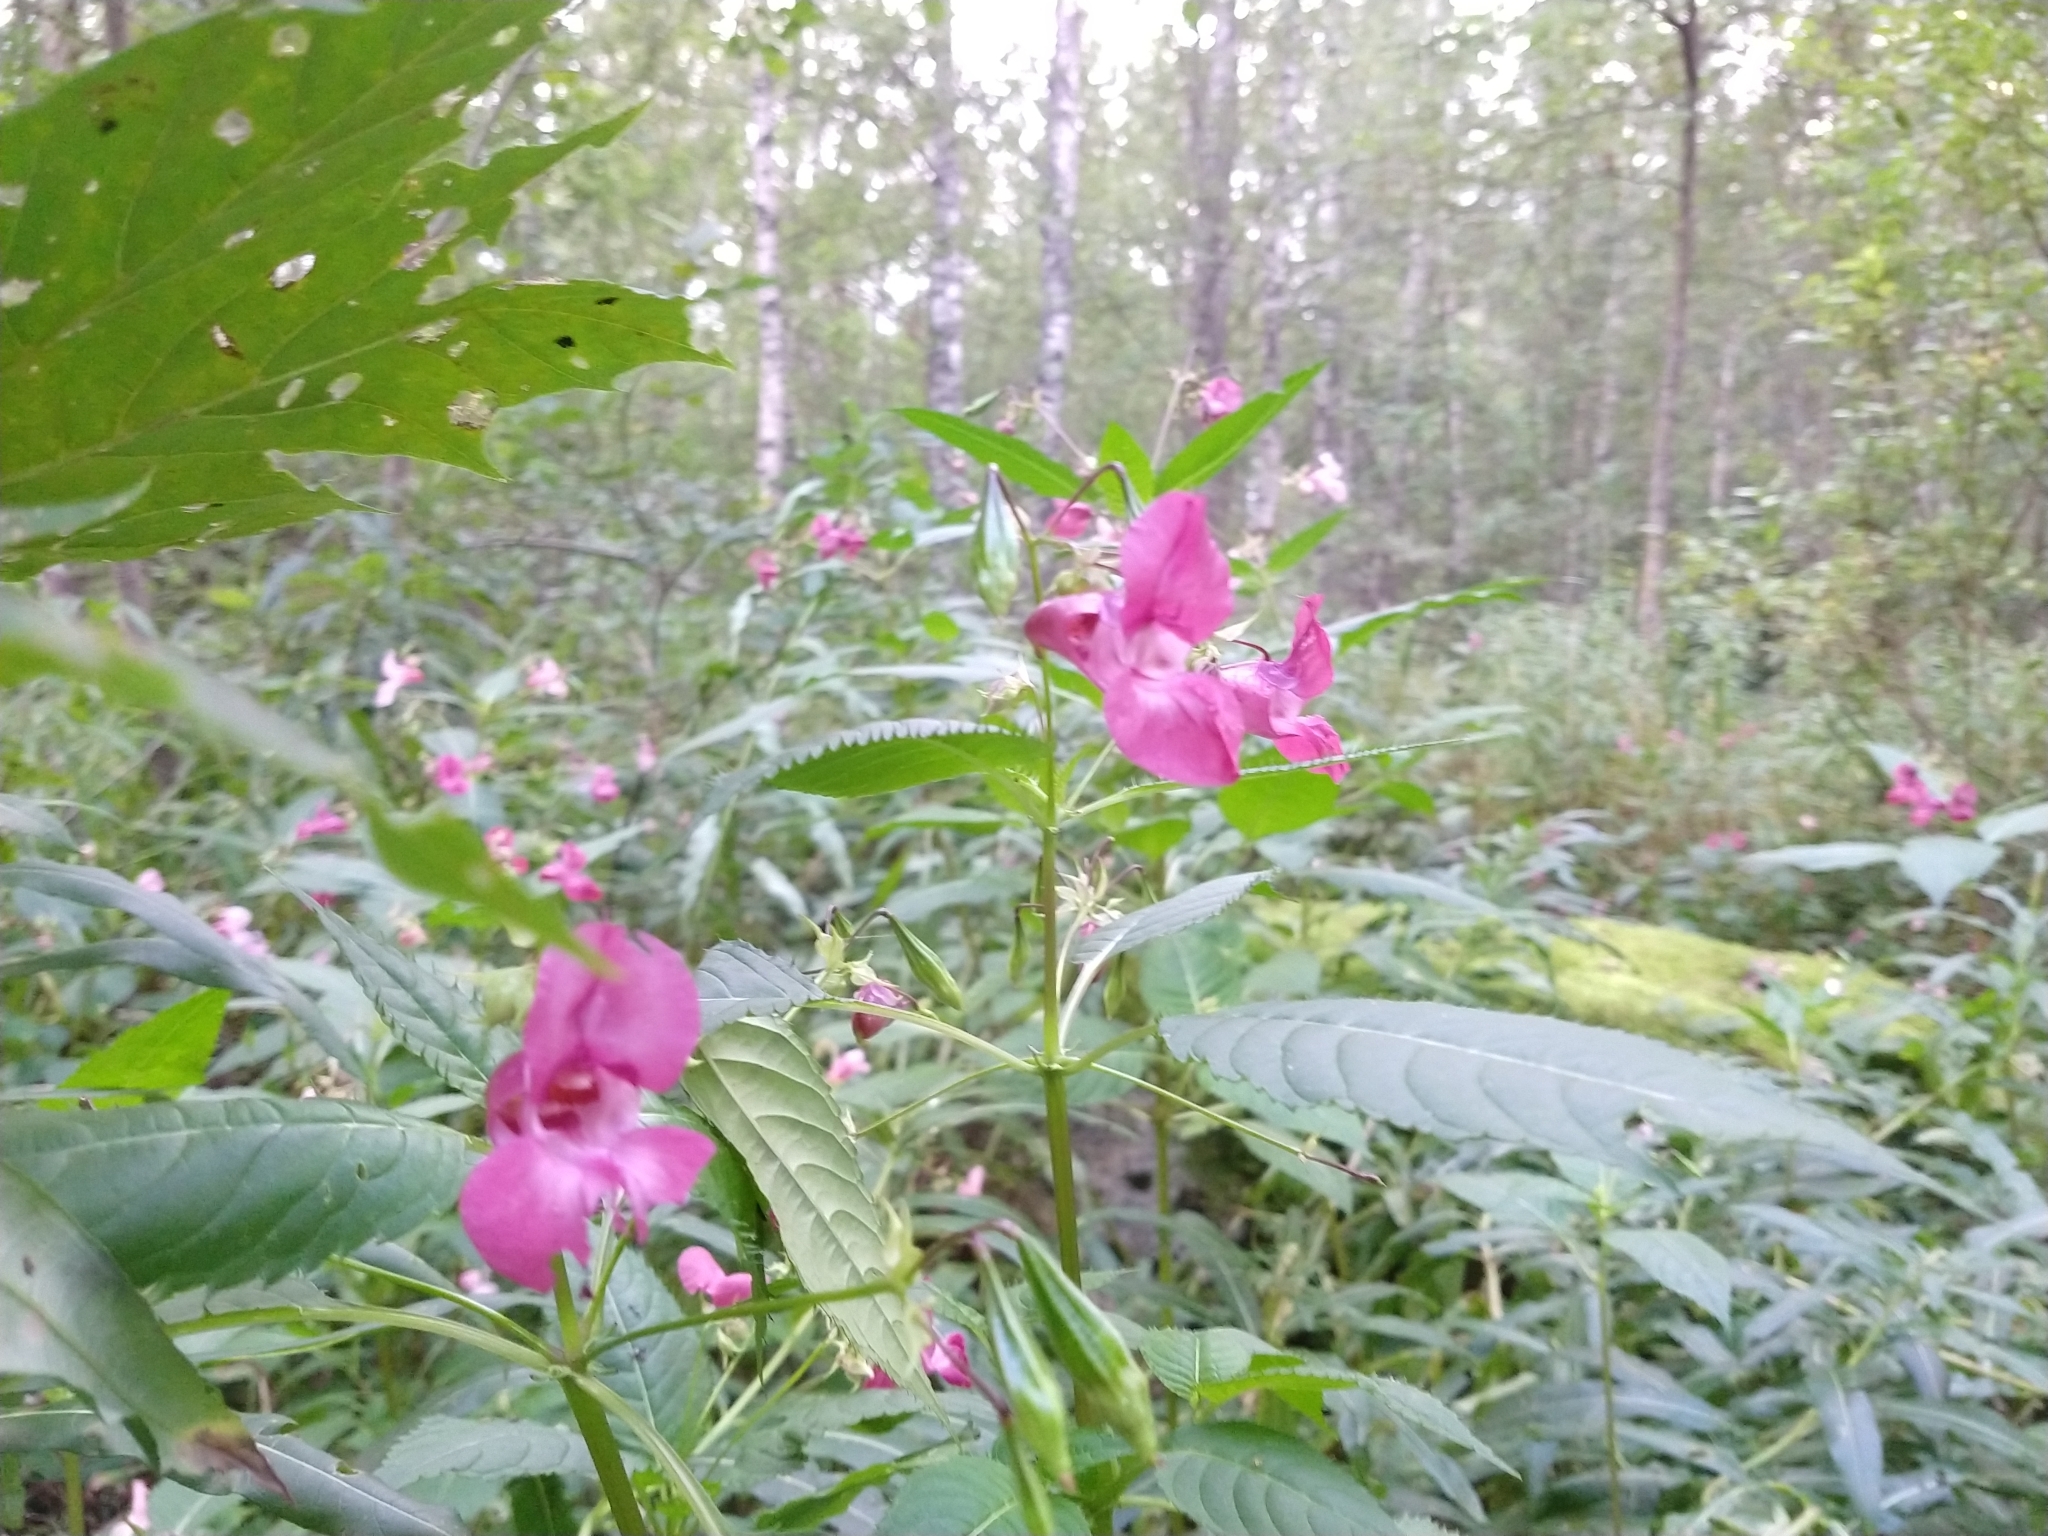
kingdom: Plantae
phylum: Tracheophyta
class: Magnoliopsida
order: Ericales
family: Balsaminaceae
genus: Impatiens
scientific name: Impatiens glandulifera
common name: Himalayan balsam
